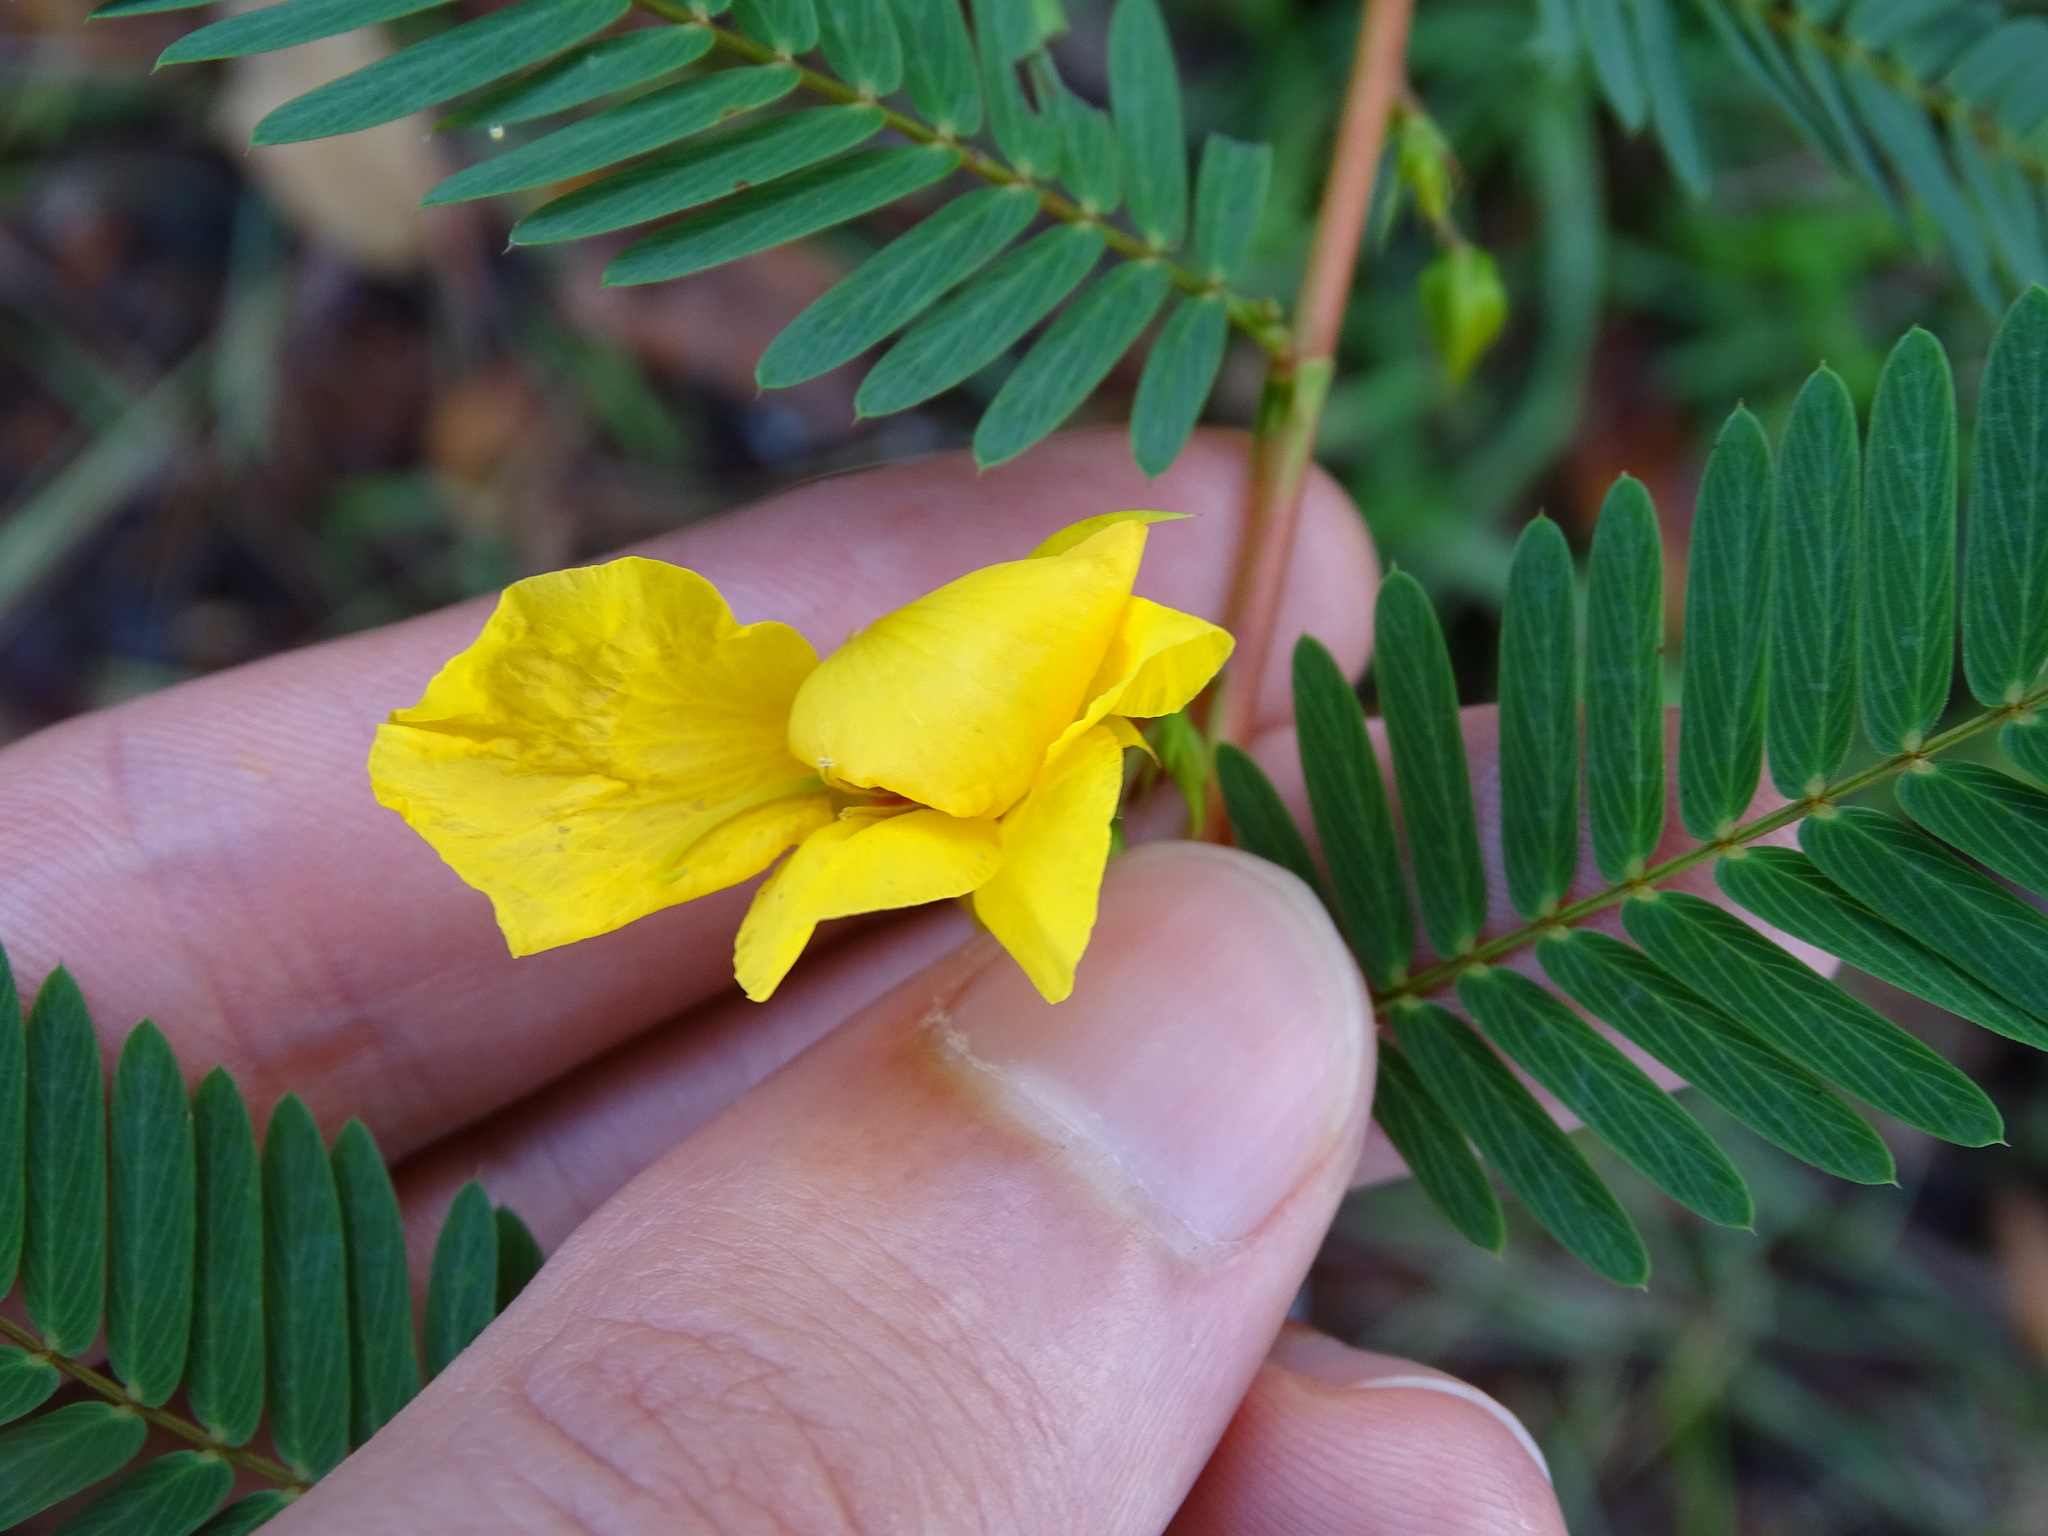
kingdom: Plantae
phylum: Tracheophyta
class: Magnoliopsida
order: Fabales
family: Fabaceae
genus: Chamaecrista
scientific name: Chamaecrista fasciculata
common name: Golden cassia
